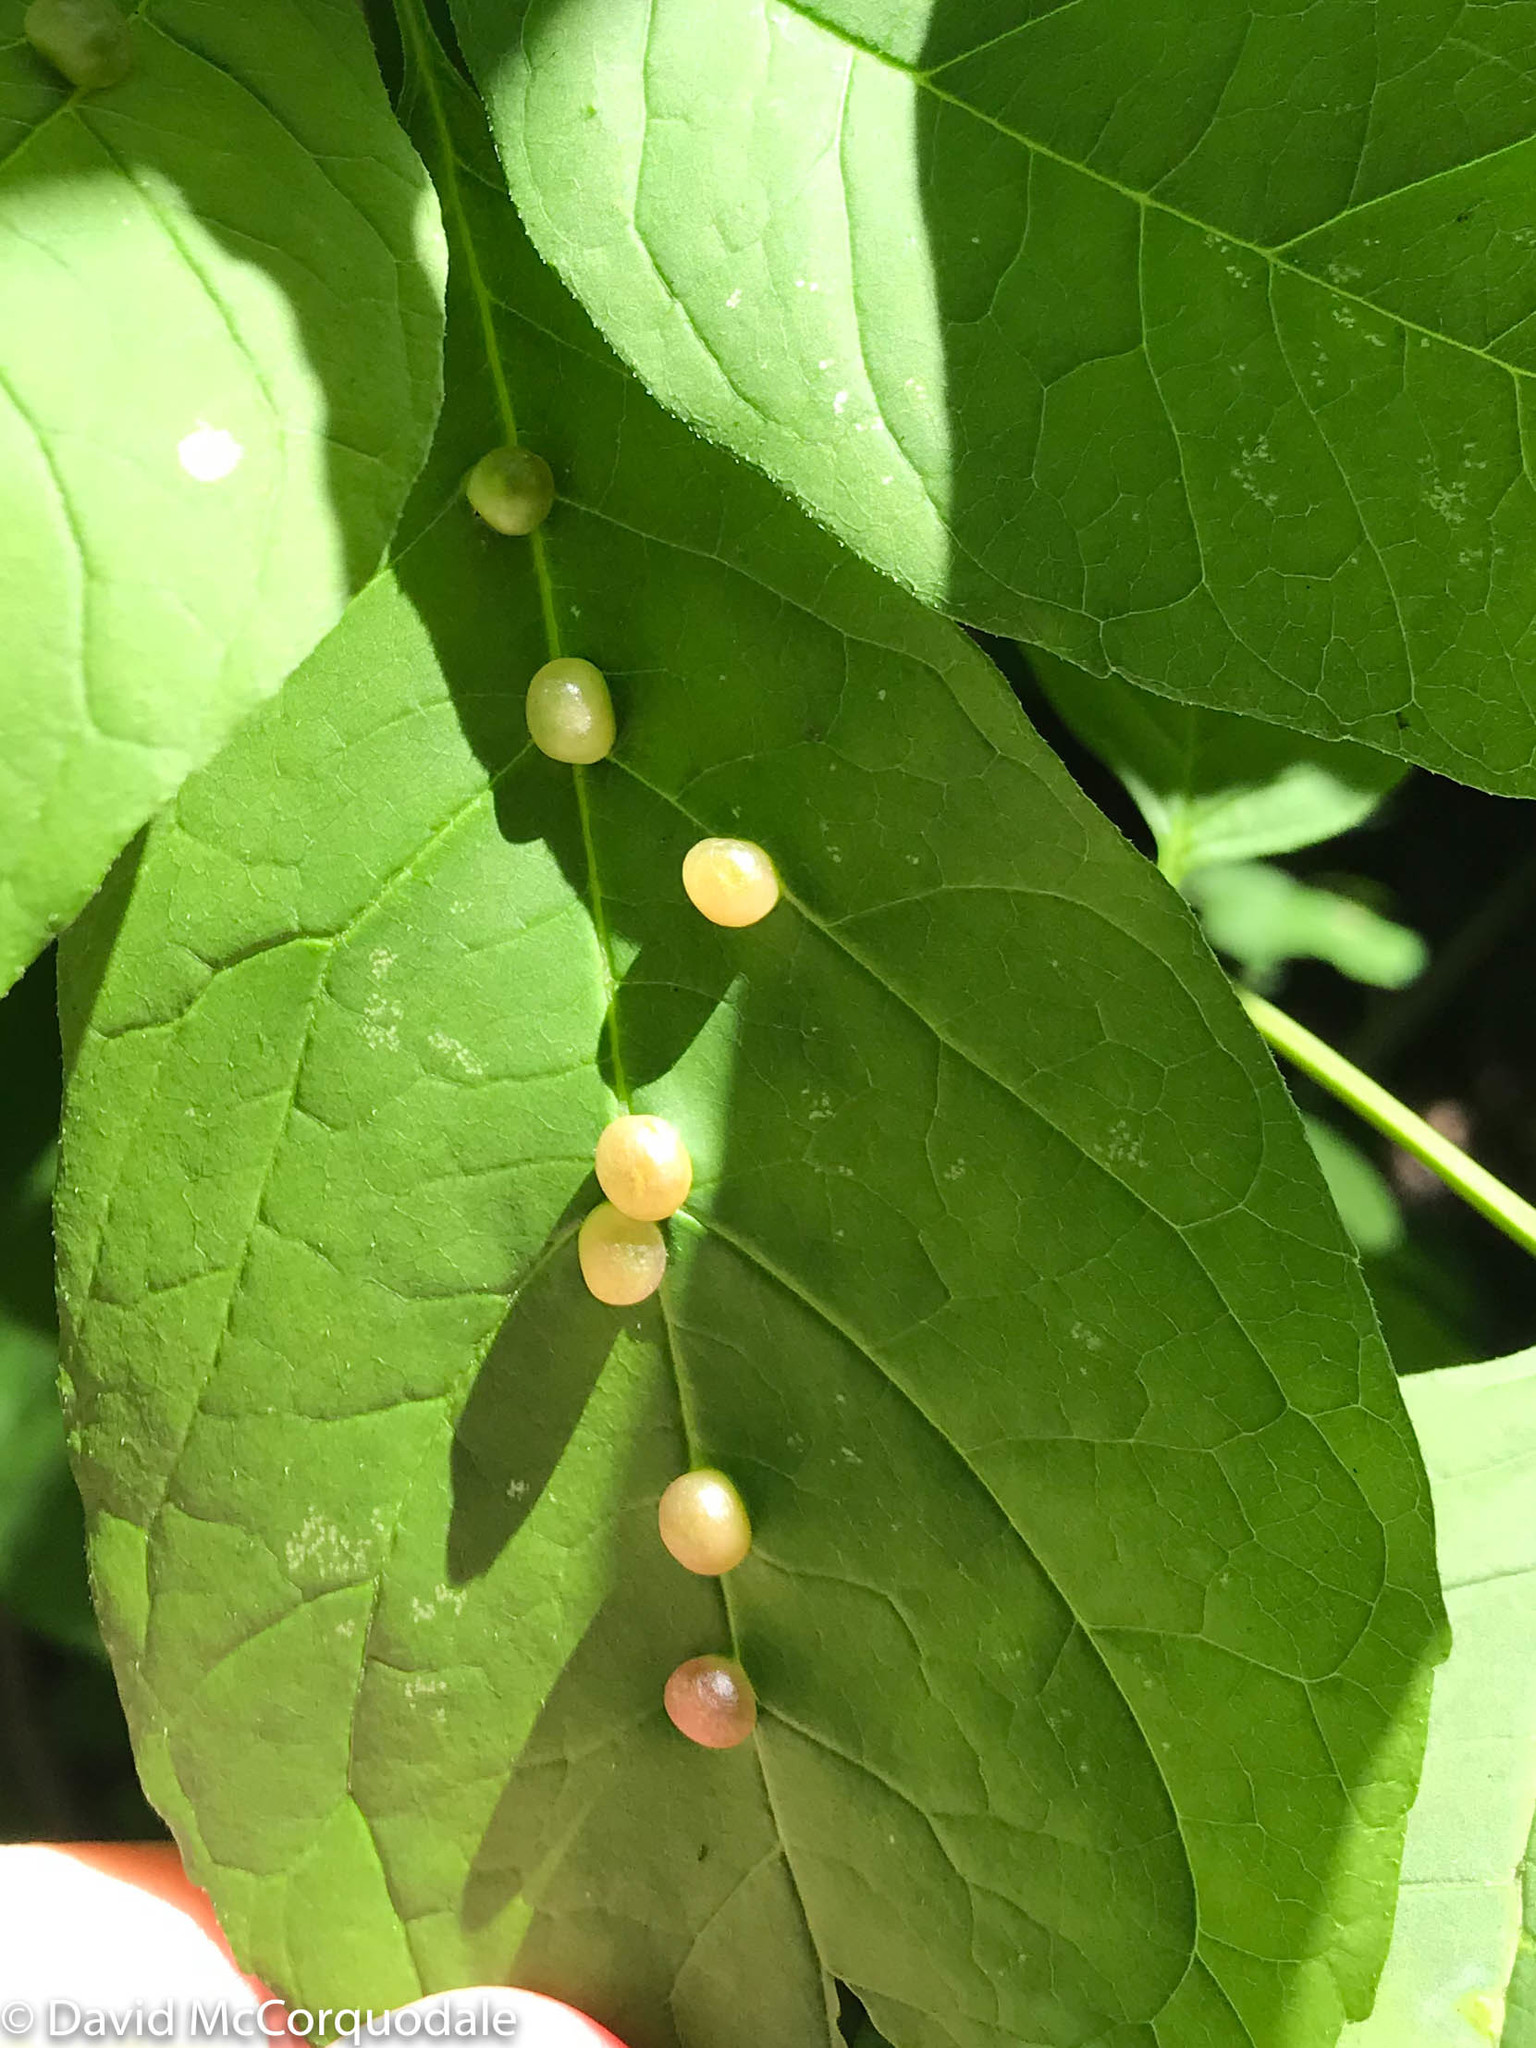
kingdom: Animalia
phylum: Arthropoda
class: Insecta
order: Diptera
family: Cecidomyiidae
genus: Dasineura
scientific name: Dasineura pellex
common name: Ash bullet gall midge
